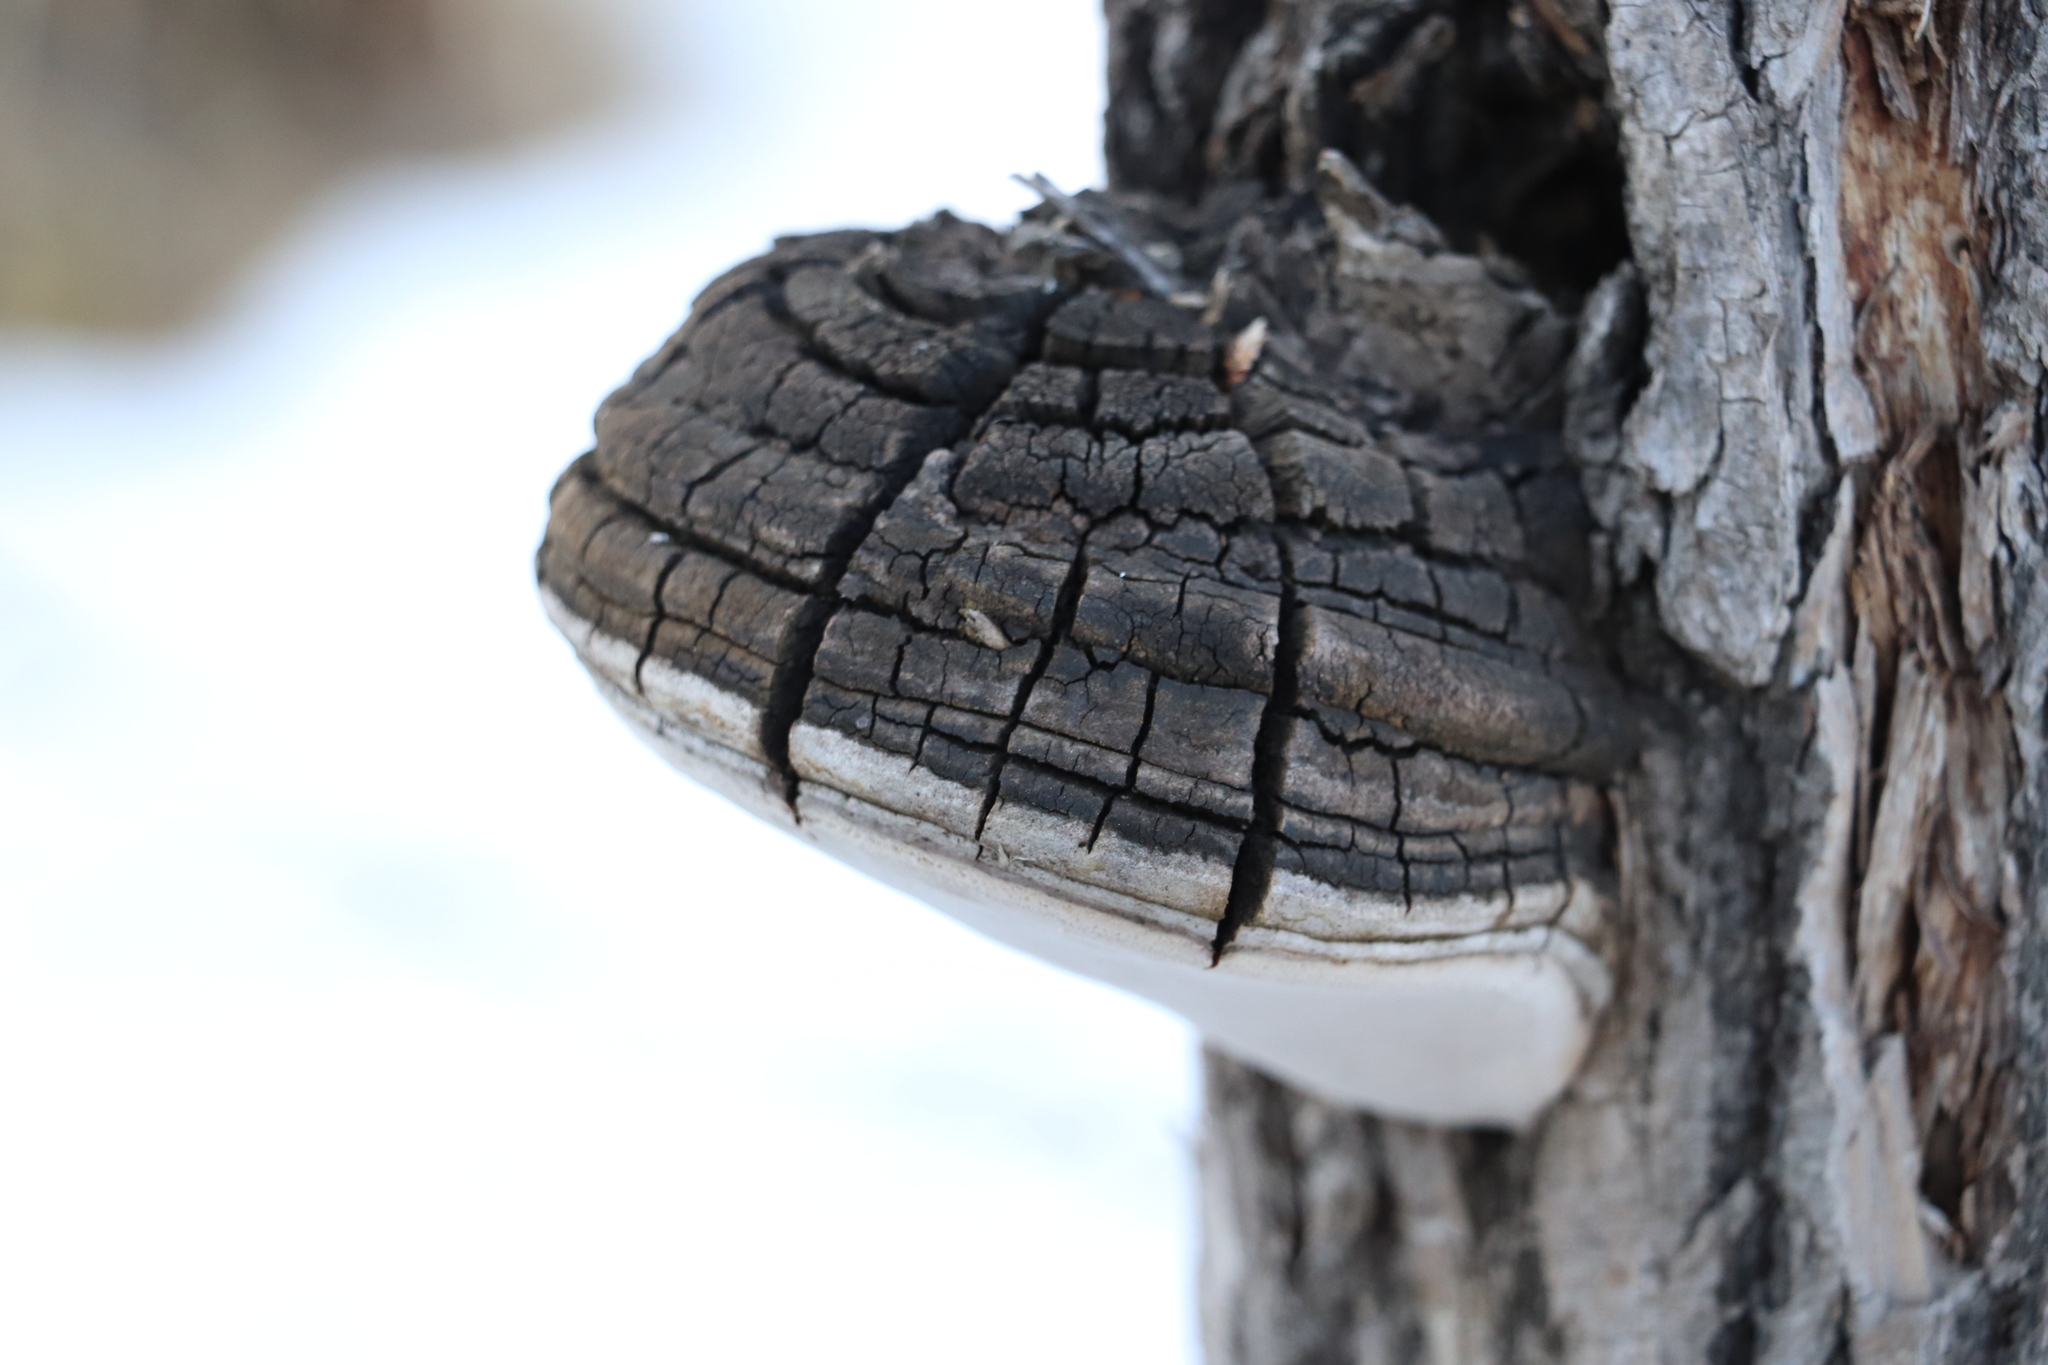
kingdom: Fungi
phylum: Basidiomycota
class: Agaricomycetes
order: Hymenochaetales
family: Hymenochaetaceae
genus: Phellinus
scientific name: Phellinus igniarius
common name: Willow bracket
